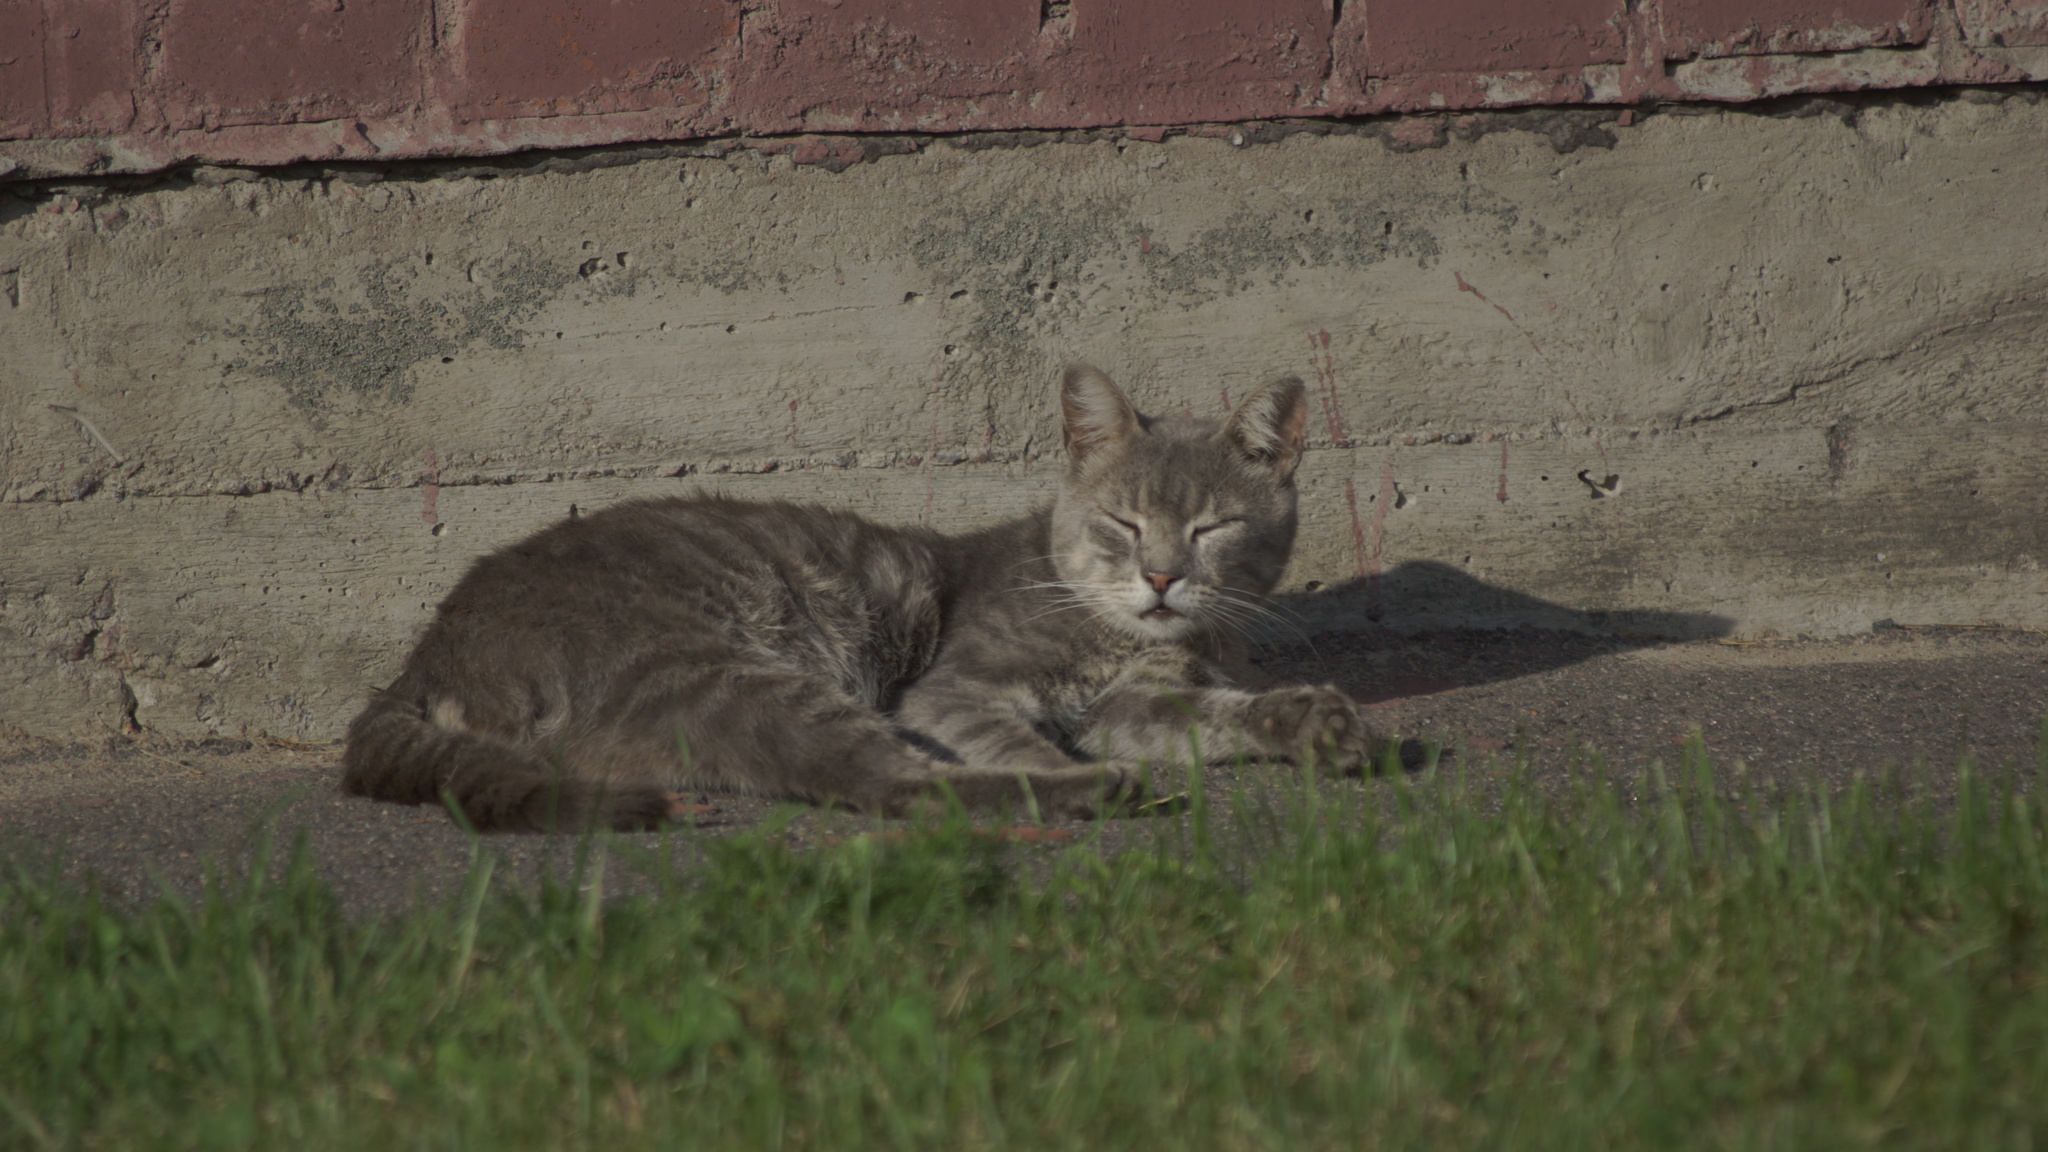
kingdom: Animalia
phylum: Chordata
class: Mammalia
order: Carnivora
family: Felidae
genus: Felis
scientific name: Felis catus
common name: Domestic cat
